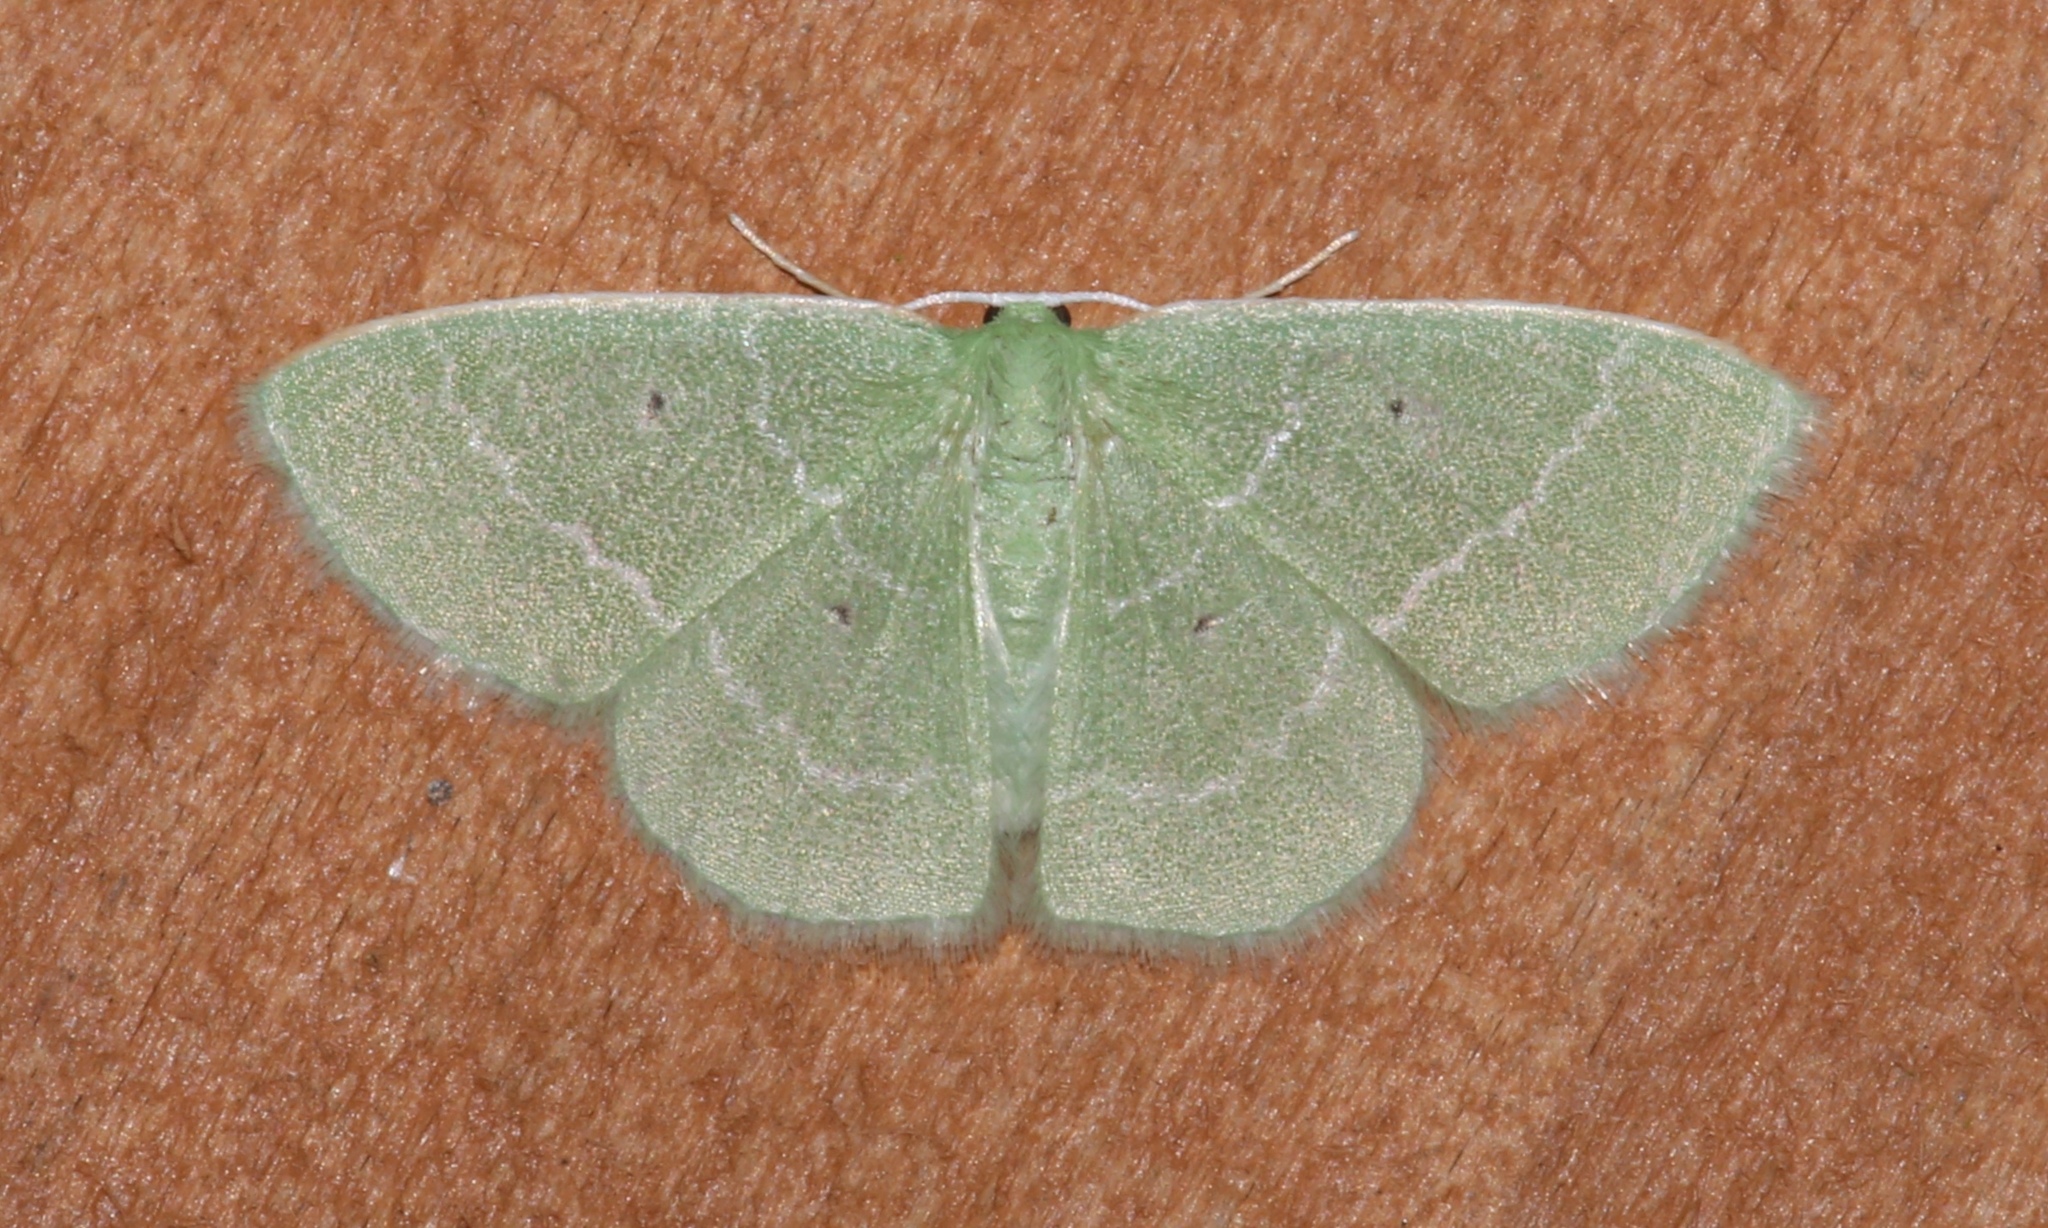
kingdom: Animalia
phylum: Arthropoda
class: Insecta
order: Lepidoptera
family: Geometridae
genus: Nemoria
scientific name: Nemoria elfa
